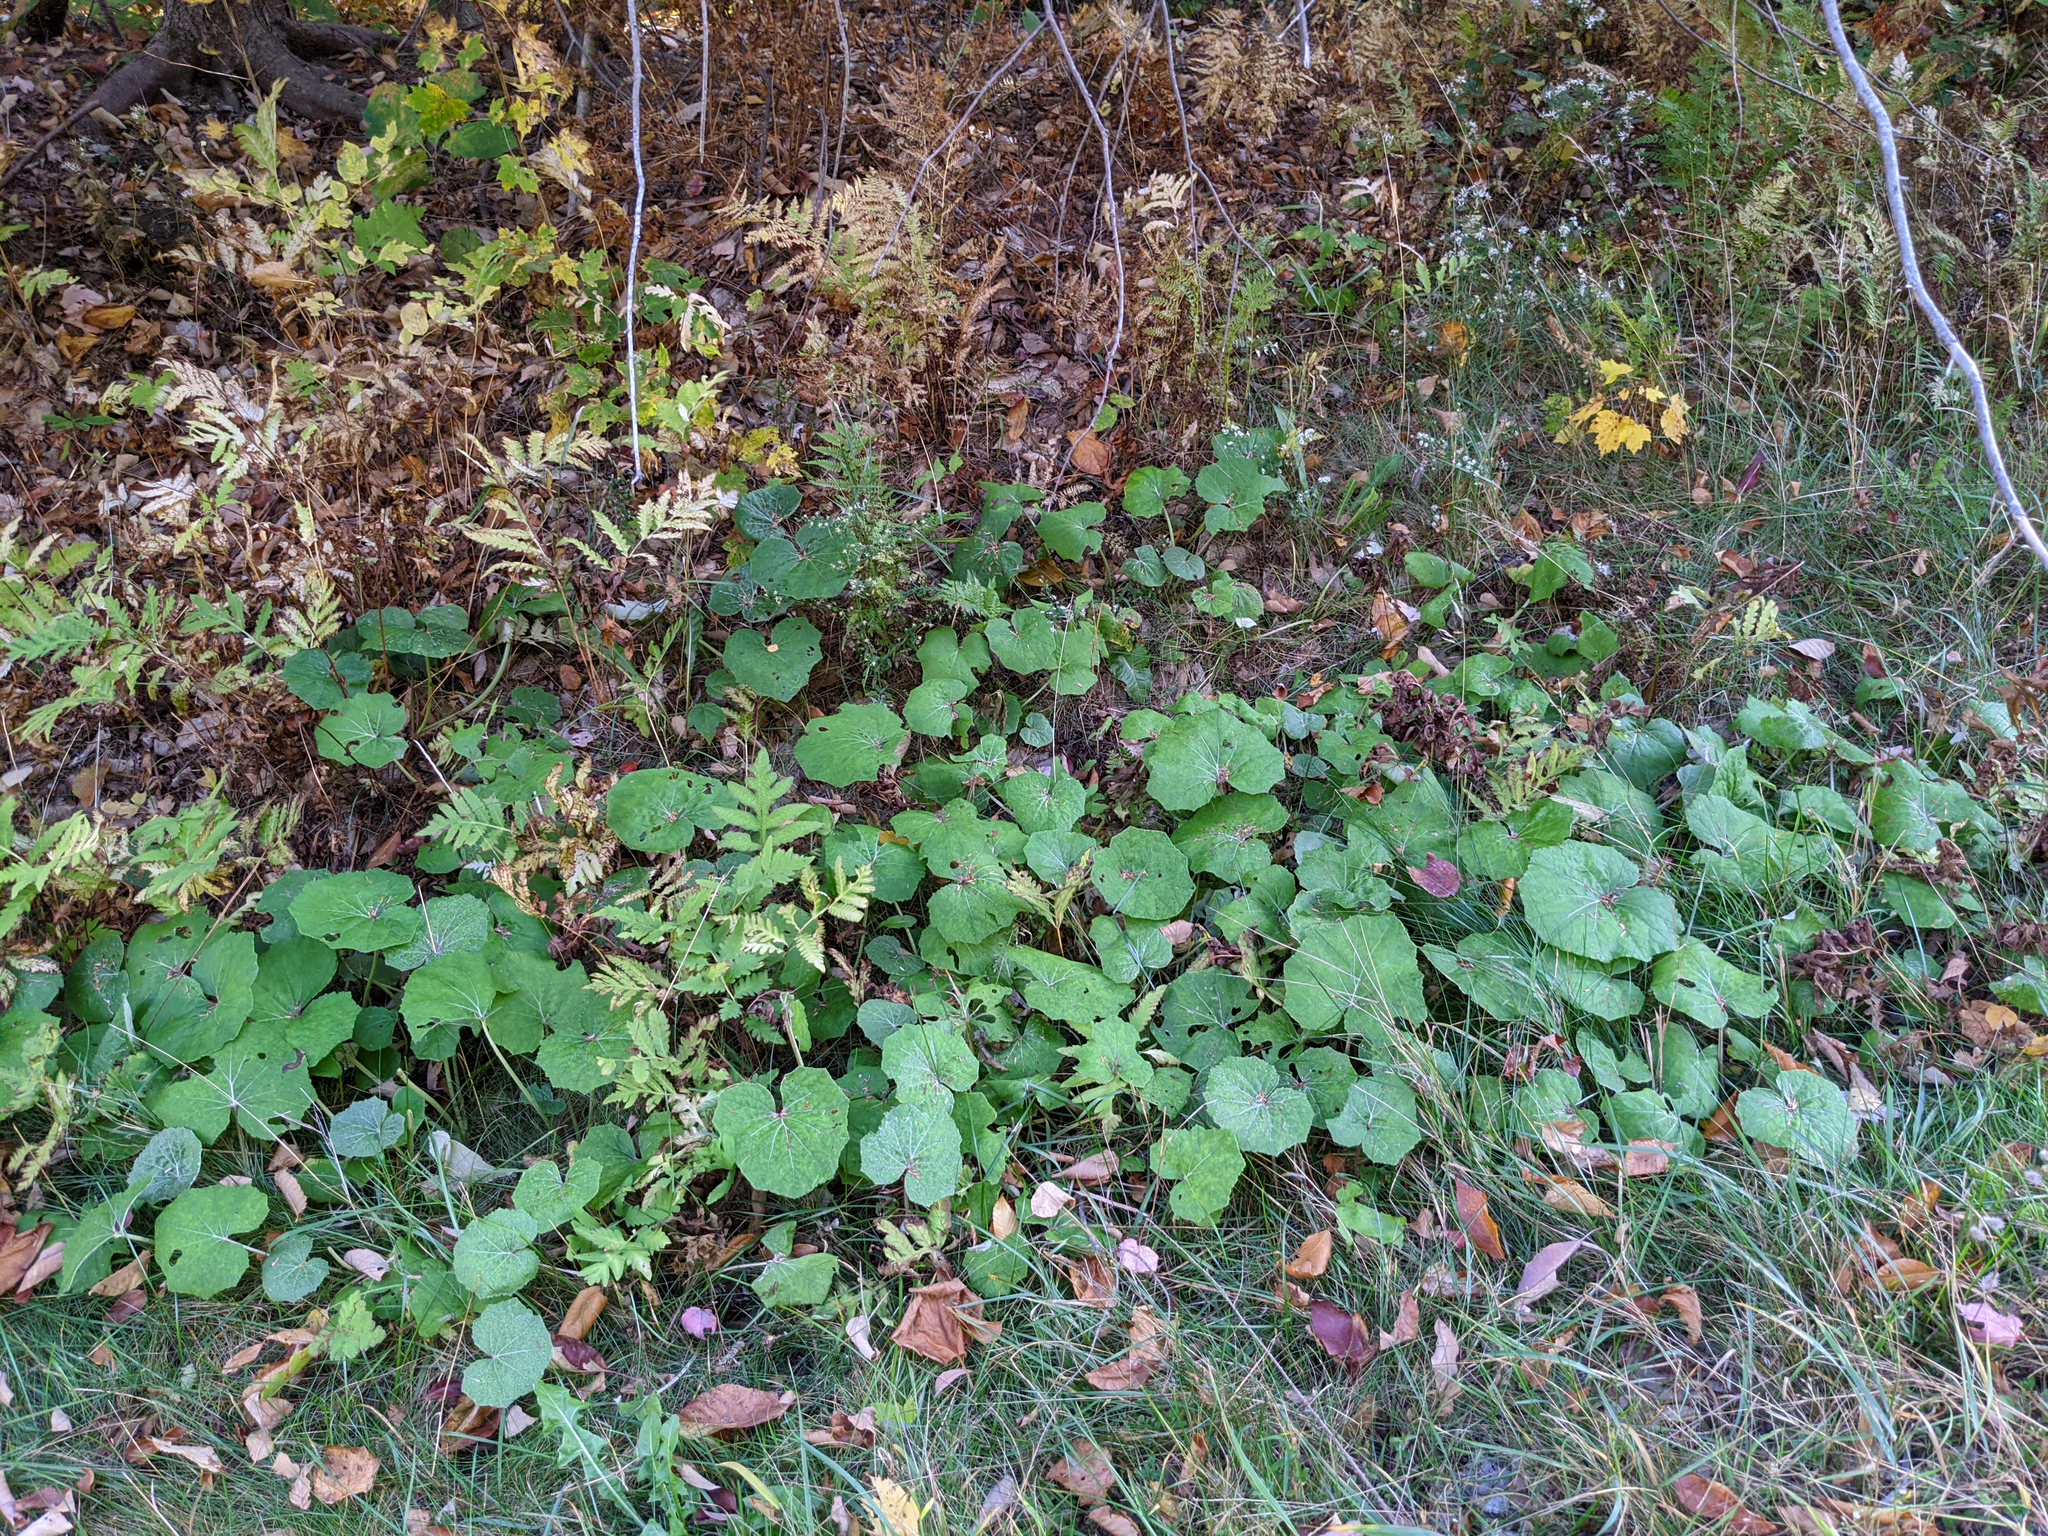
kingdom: Plantae
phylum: Tracheophyta
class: Magnoliopsida
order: Asterales
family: Asteraceae
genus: Tussilago
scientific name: Tussilago farfara
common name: Coltsfoot
